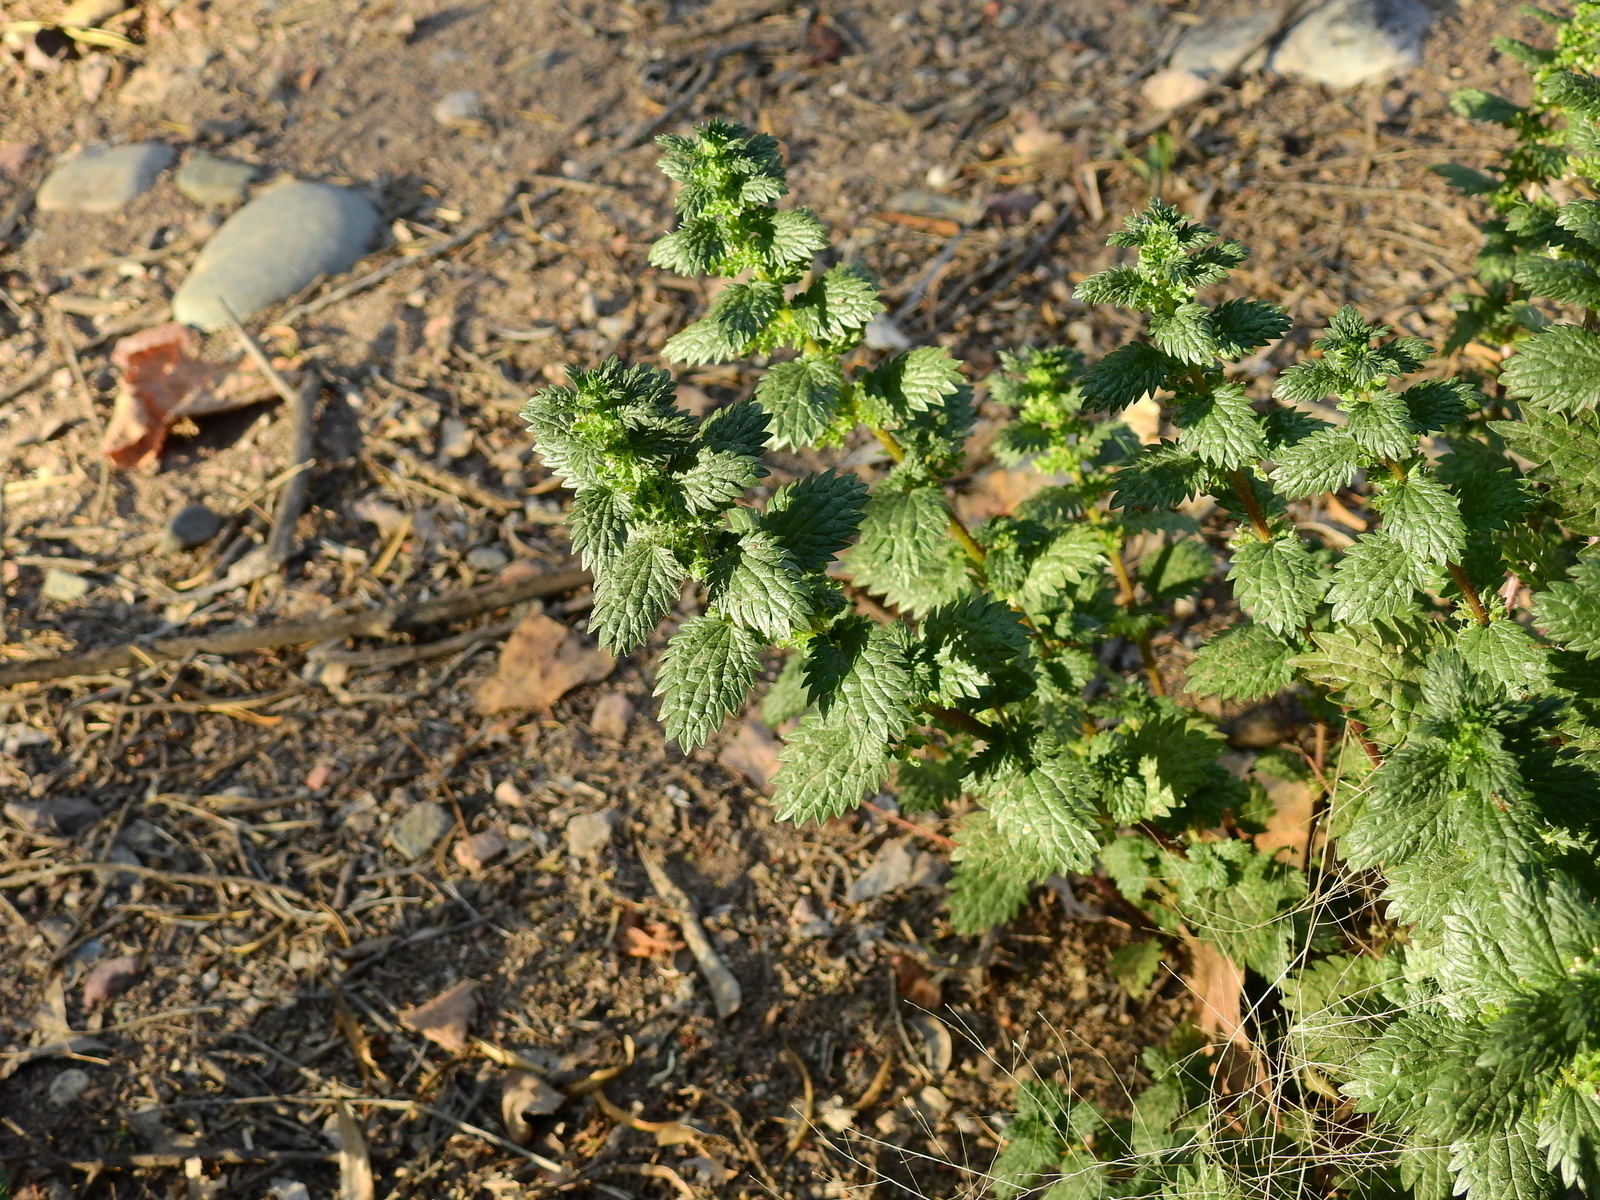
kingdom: Plantae
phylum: Tracheophyta
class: Magnoliopsida
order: Rosales
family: Urticaceae
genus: Urtica
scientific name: Urtica urens
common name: Dwarf nettle
